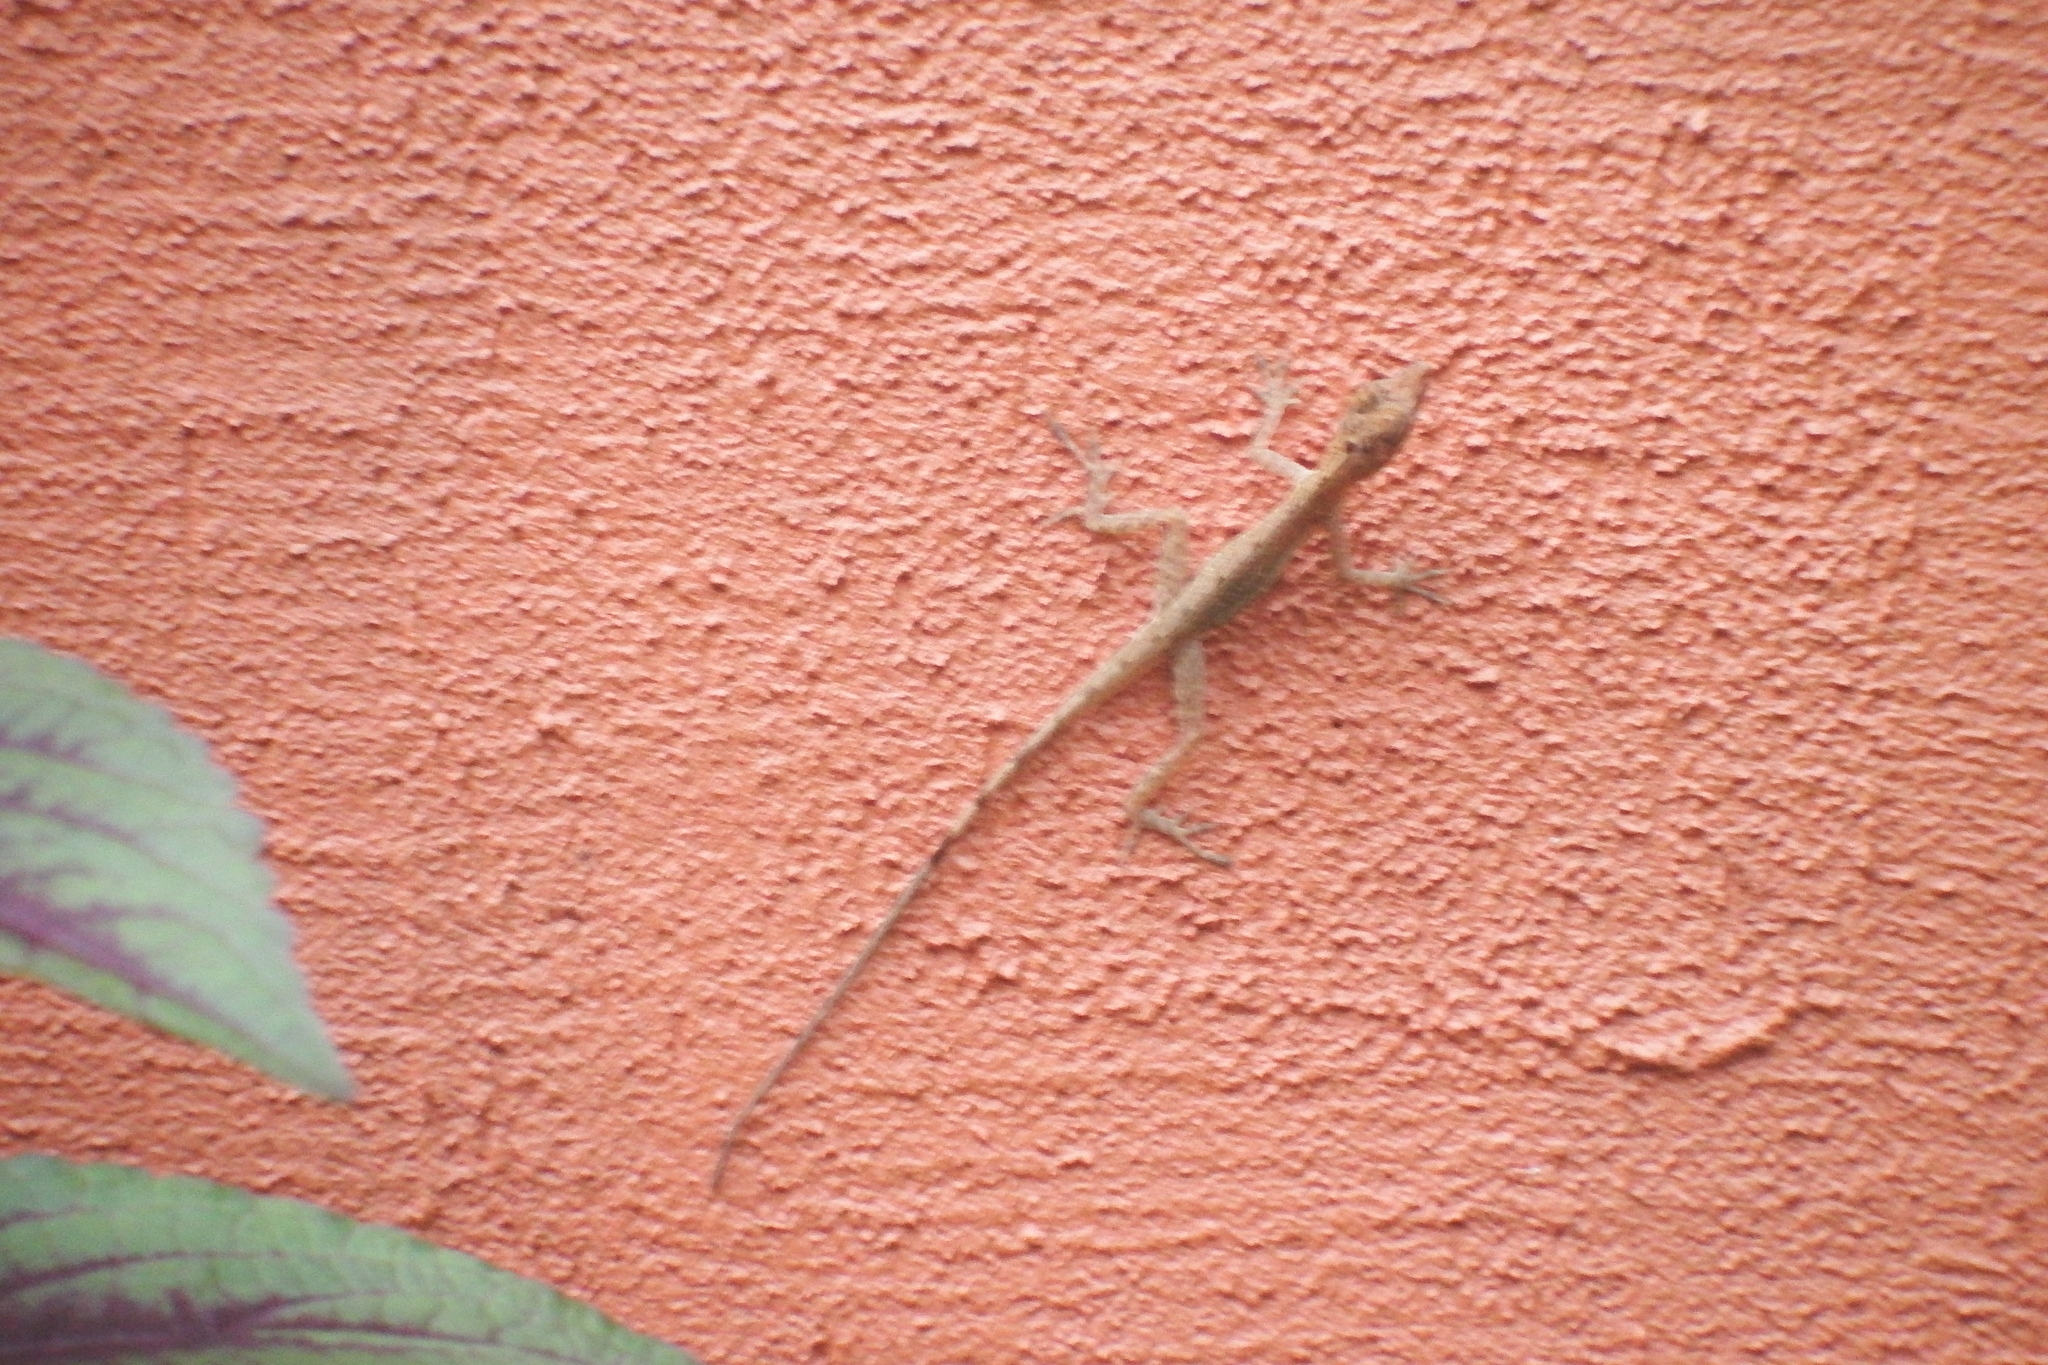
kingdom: Animalia
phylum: Chordata
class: Squamata
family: Dactyloidae
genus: Anolis
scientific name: Anolis limifrons
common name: Border anole
